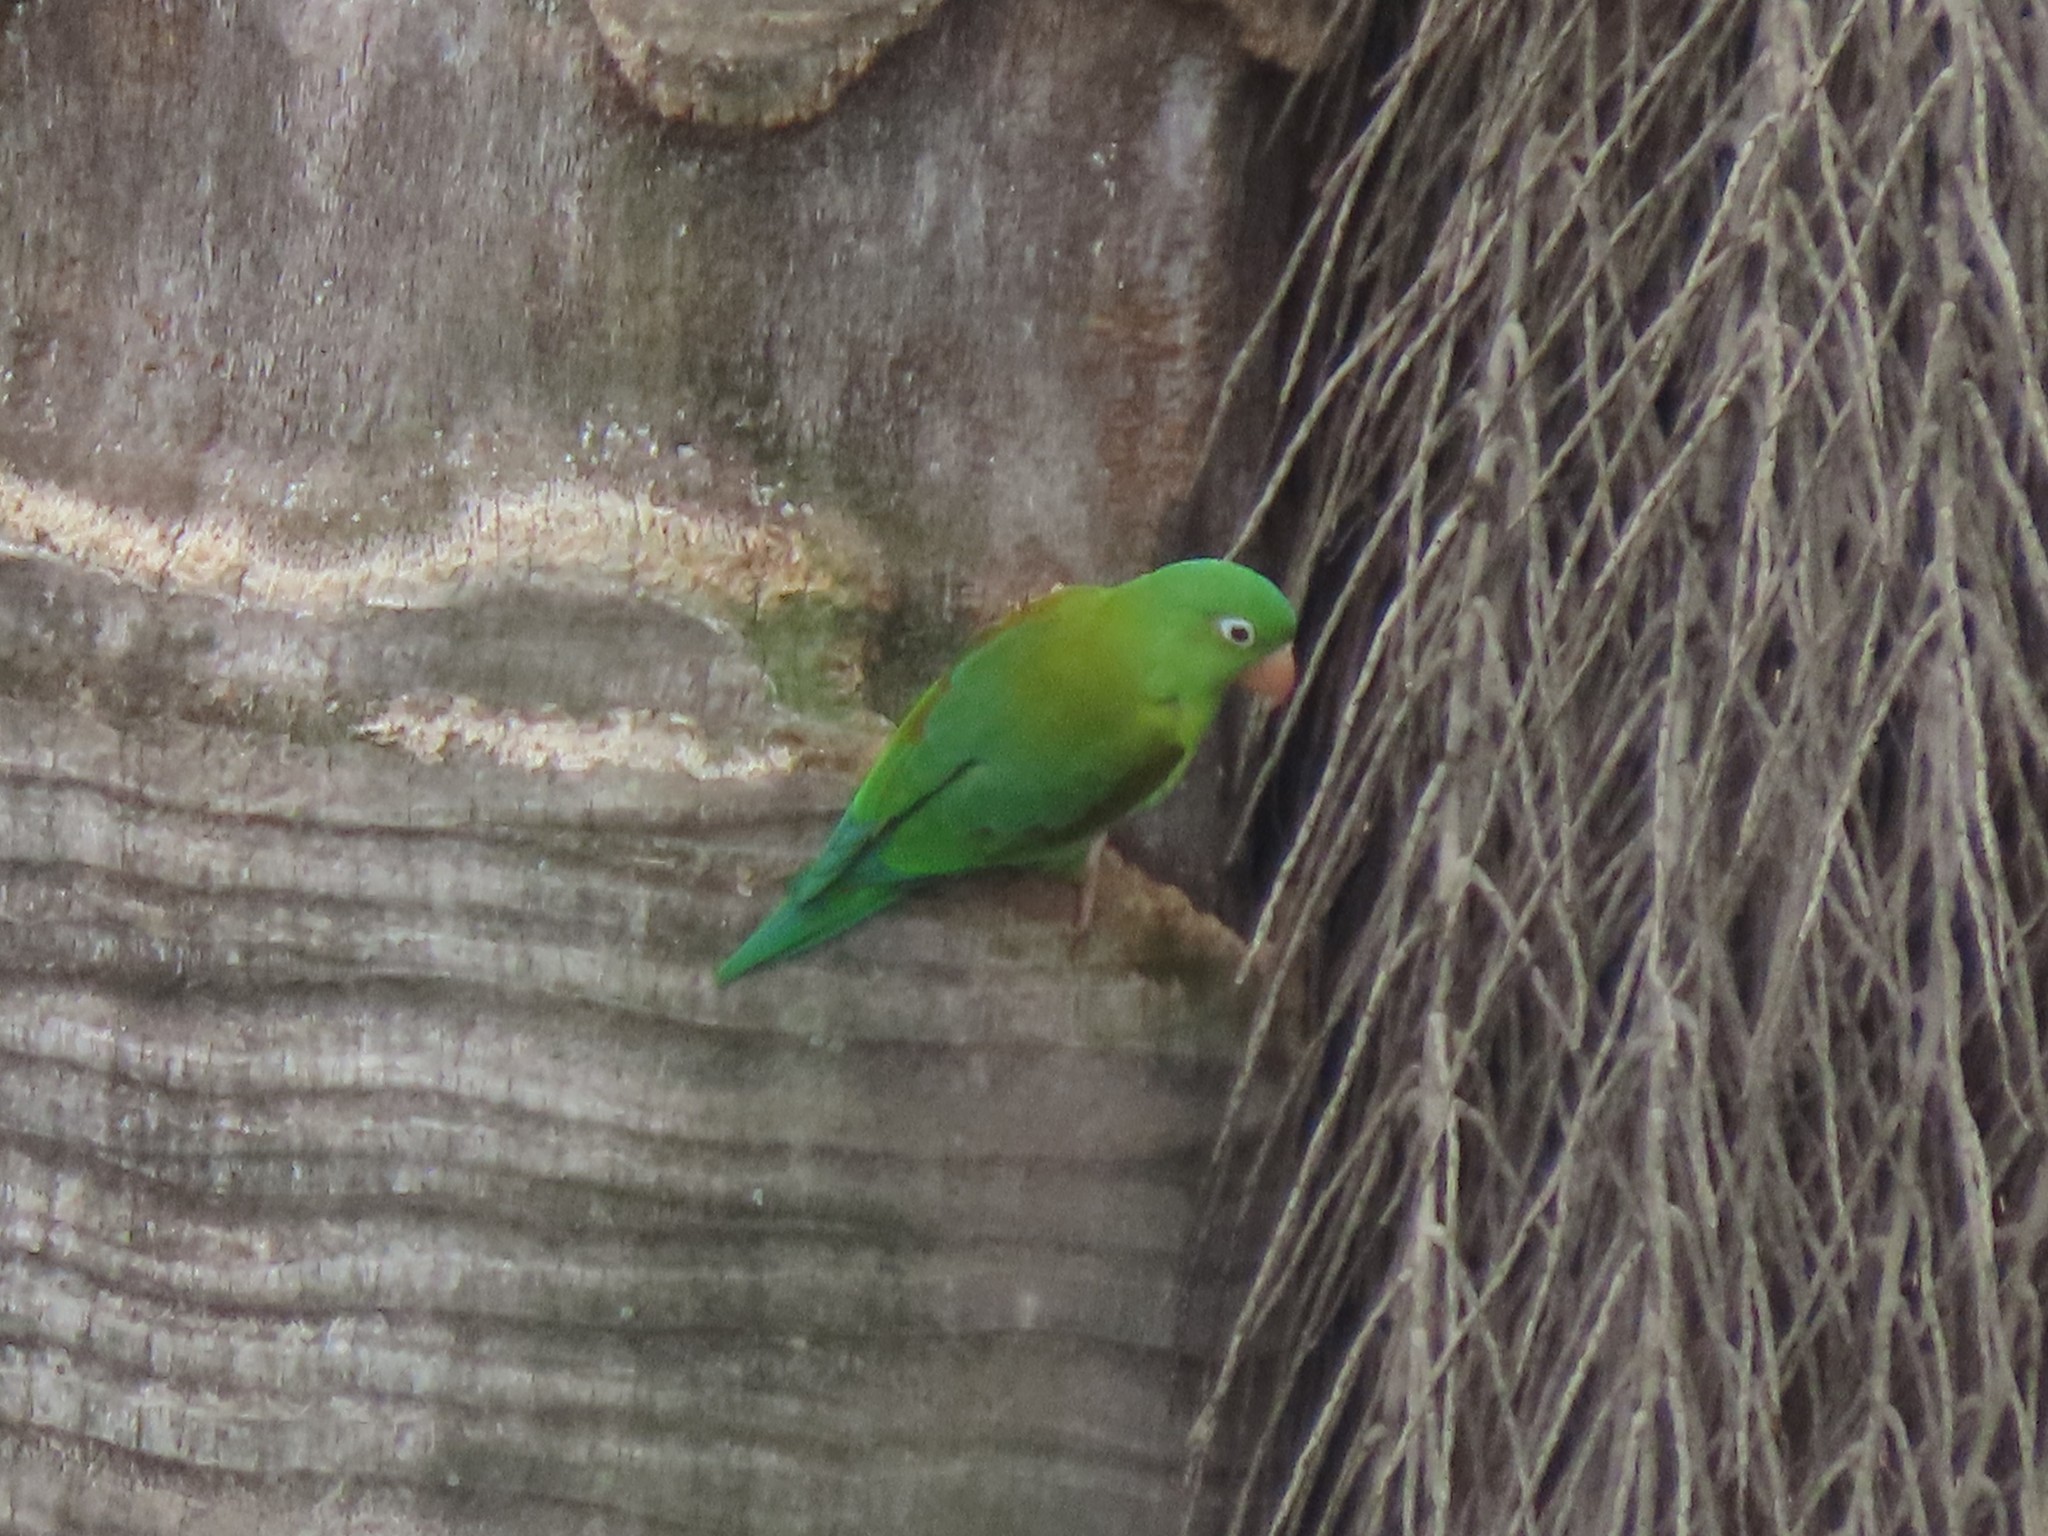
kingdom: Animalia
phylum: Chordata
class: Aves
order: Psittaciformes
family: Psittacidae
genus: Brotogeris
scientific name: Brotogeris jugularis
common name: Orange-chinned parakeet
